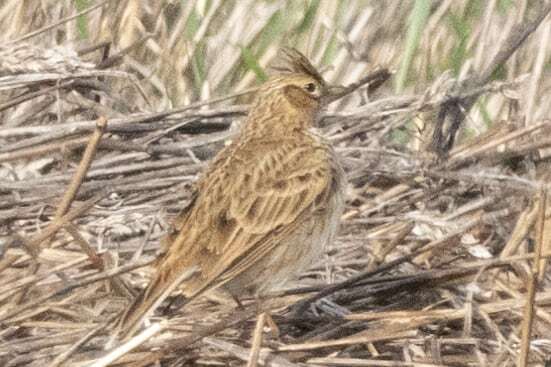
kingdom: Animalia
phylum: Chordata
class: Aves
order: Passeriformes
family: Alaudidae
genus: Alauda
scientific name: Alauda arvensis
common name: Eurasian skylark
